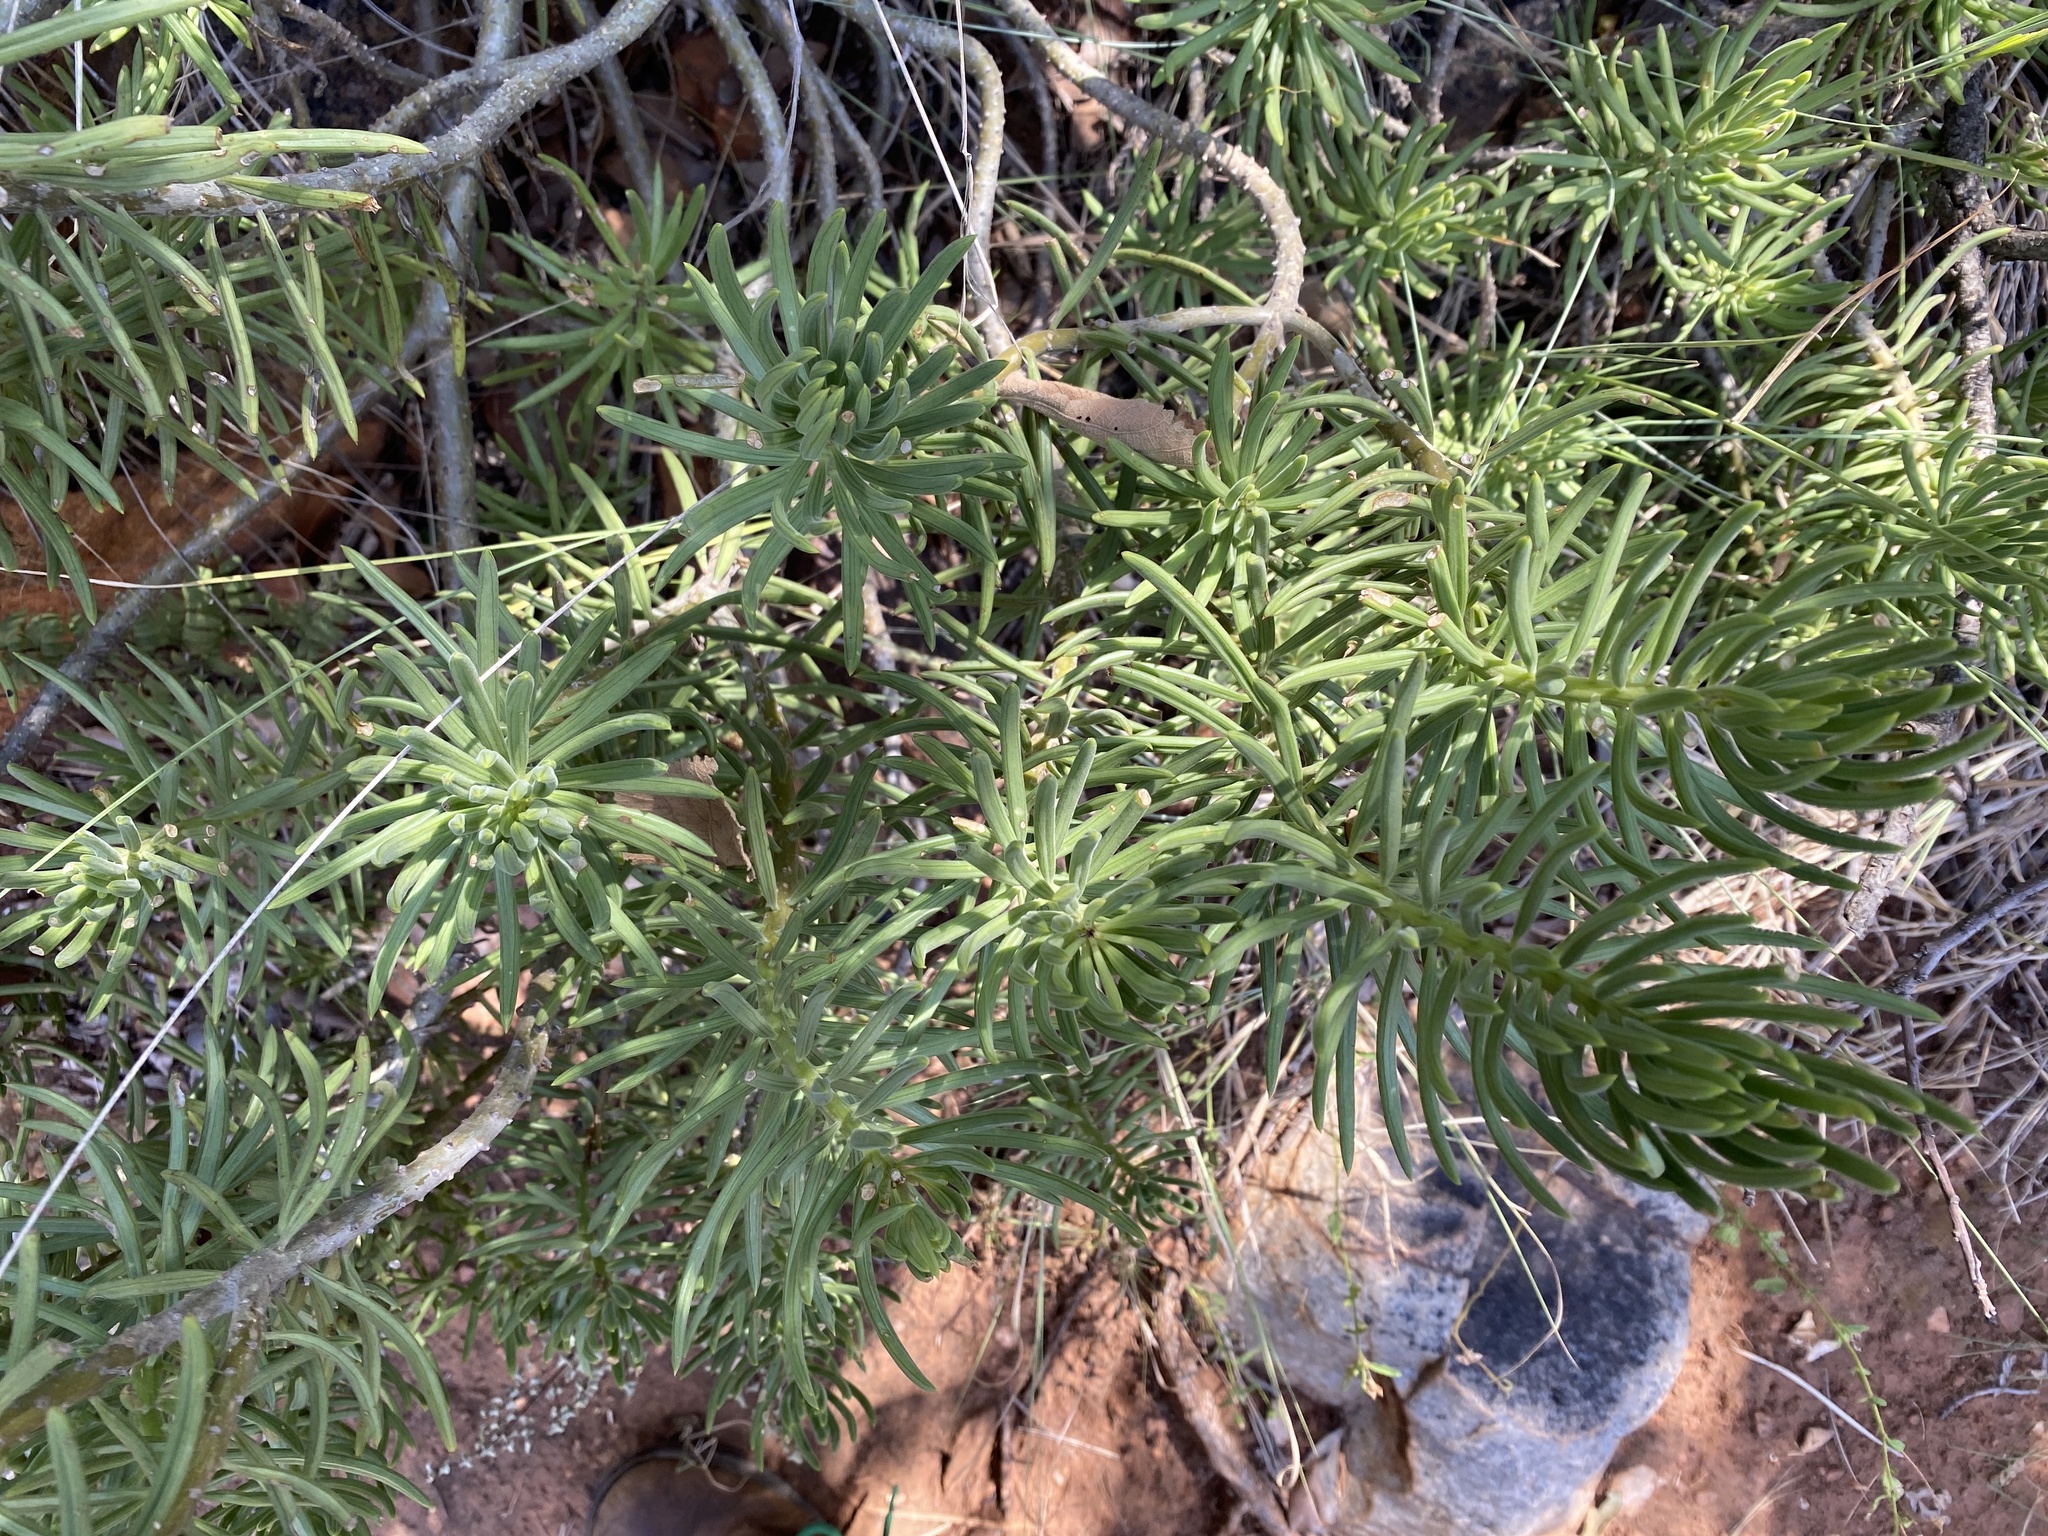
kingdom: Plantae
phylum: Tracheophyta
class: Magnoliopsida
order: Asterales
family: Asteraceae
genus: Kleinia
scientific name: Kleinia barbertonica
